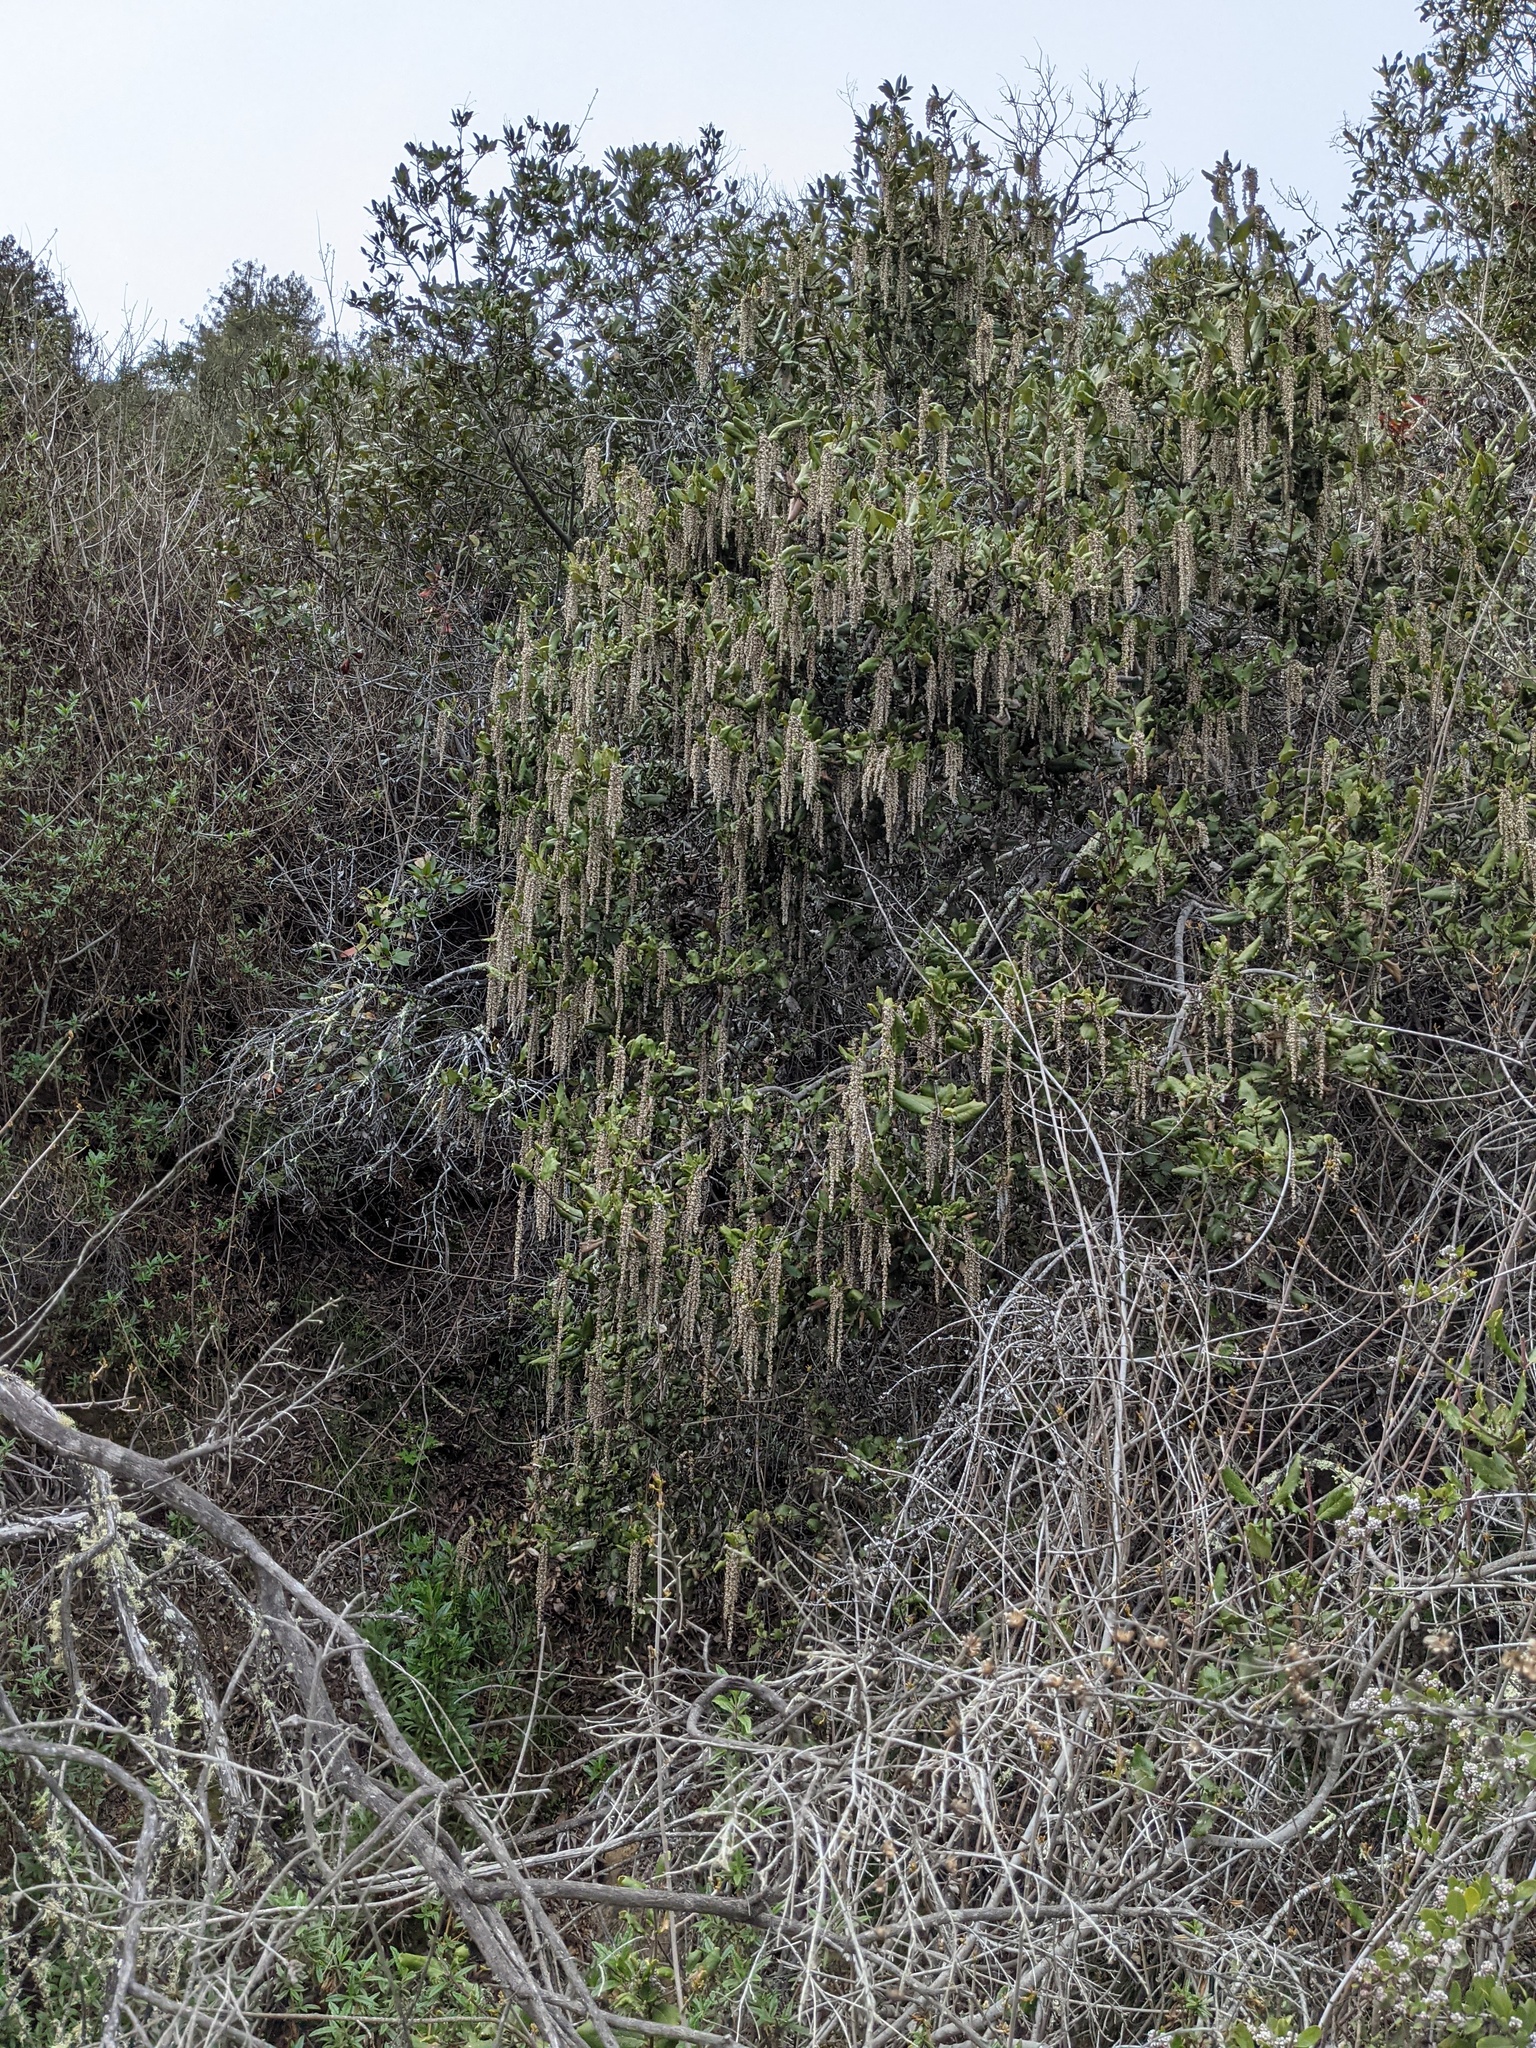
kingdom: Plantae
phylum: Tracheophyta
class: Magnoliopsida
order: Garryales
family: Garryaceae
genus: Garrya
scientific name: Garrya elliptica
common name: Silk-tassel
